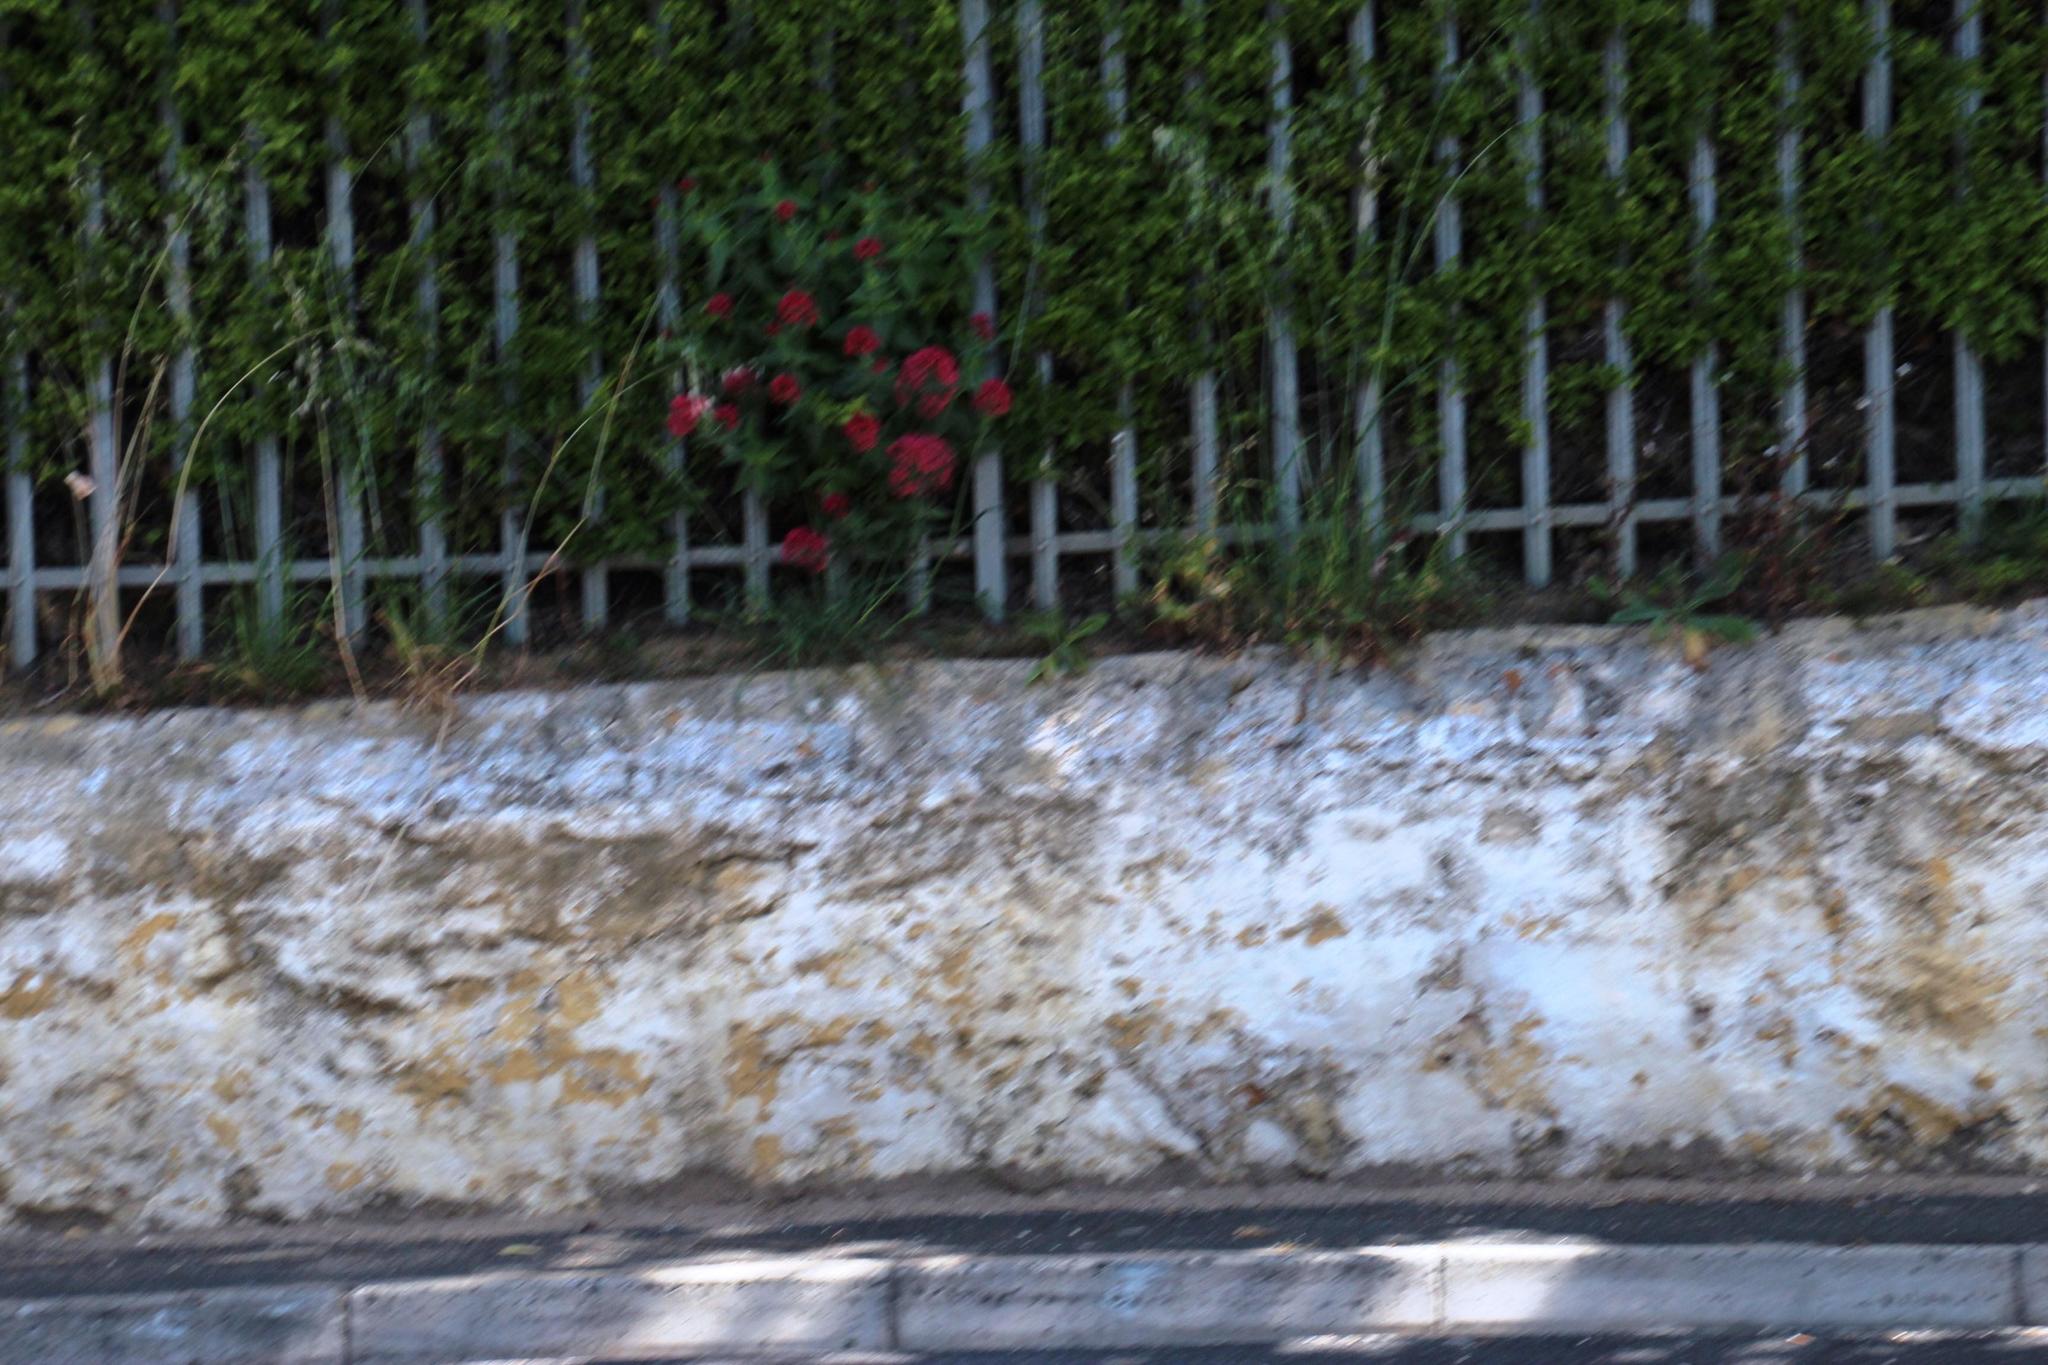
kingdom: Plantae
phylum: Tracheophyta
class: Magnoliopsida
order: Dipsacales
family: Caprifoliaceae
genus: Centranthus
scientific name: Centranthus ruber
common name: Red valerian
